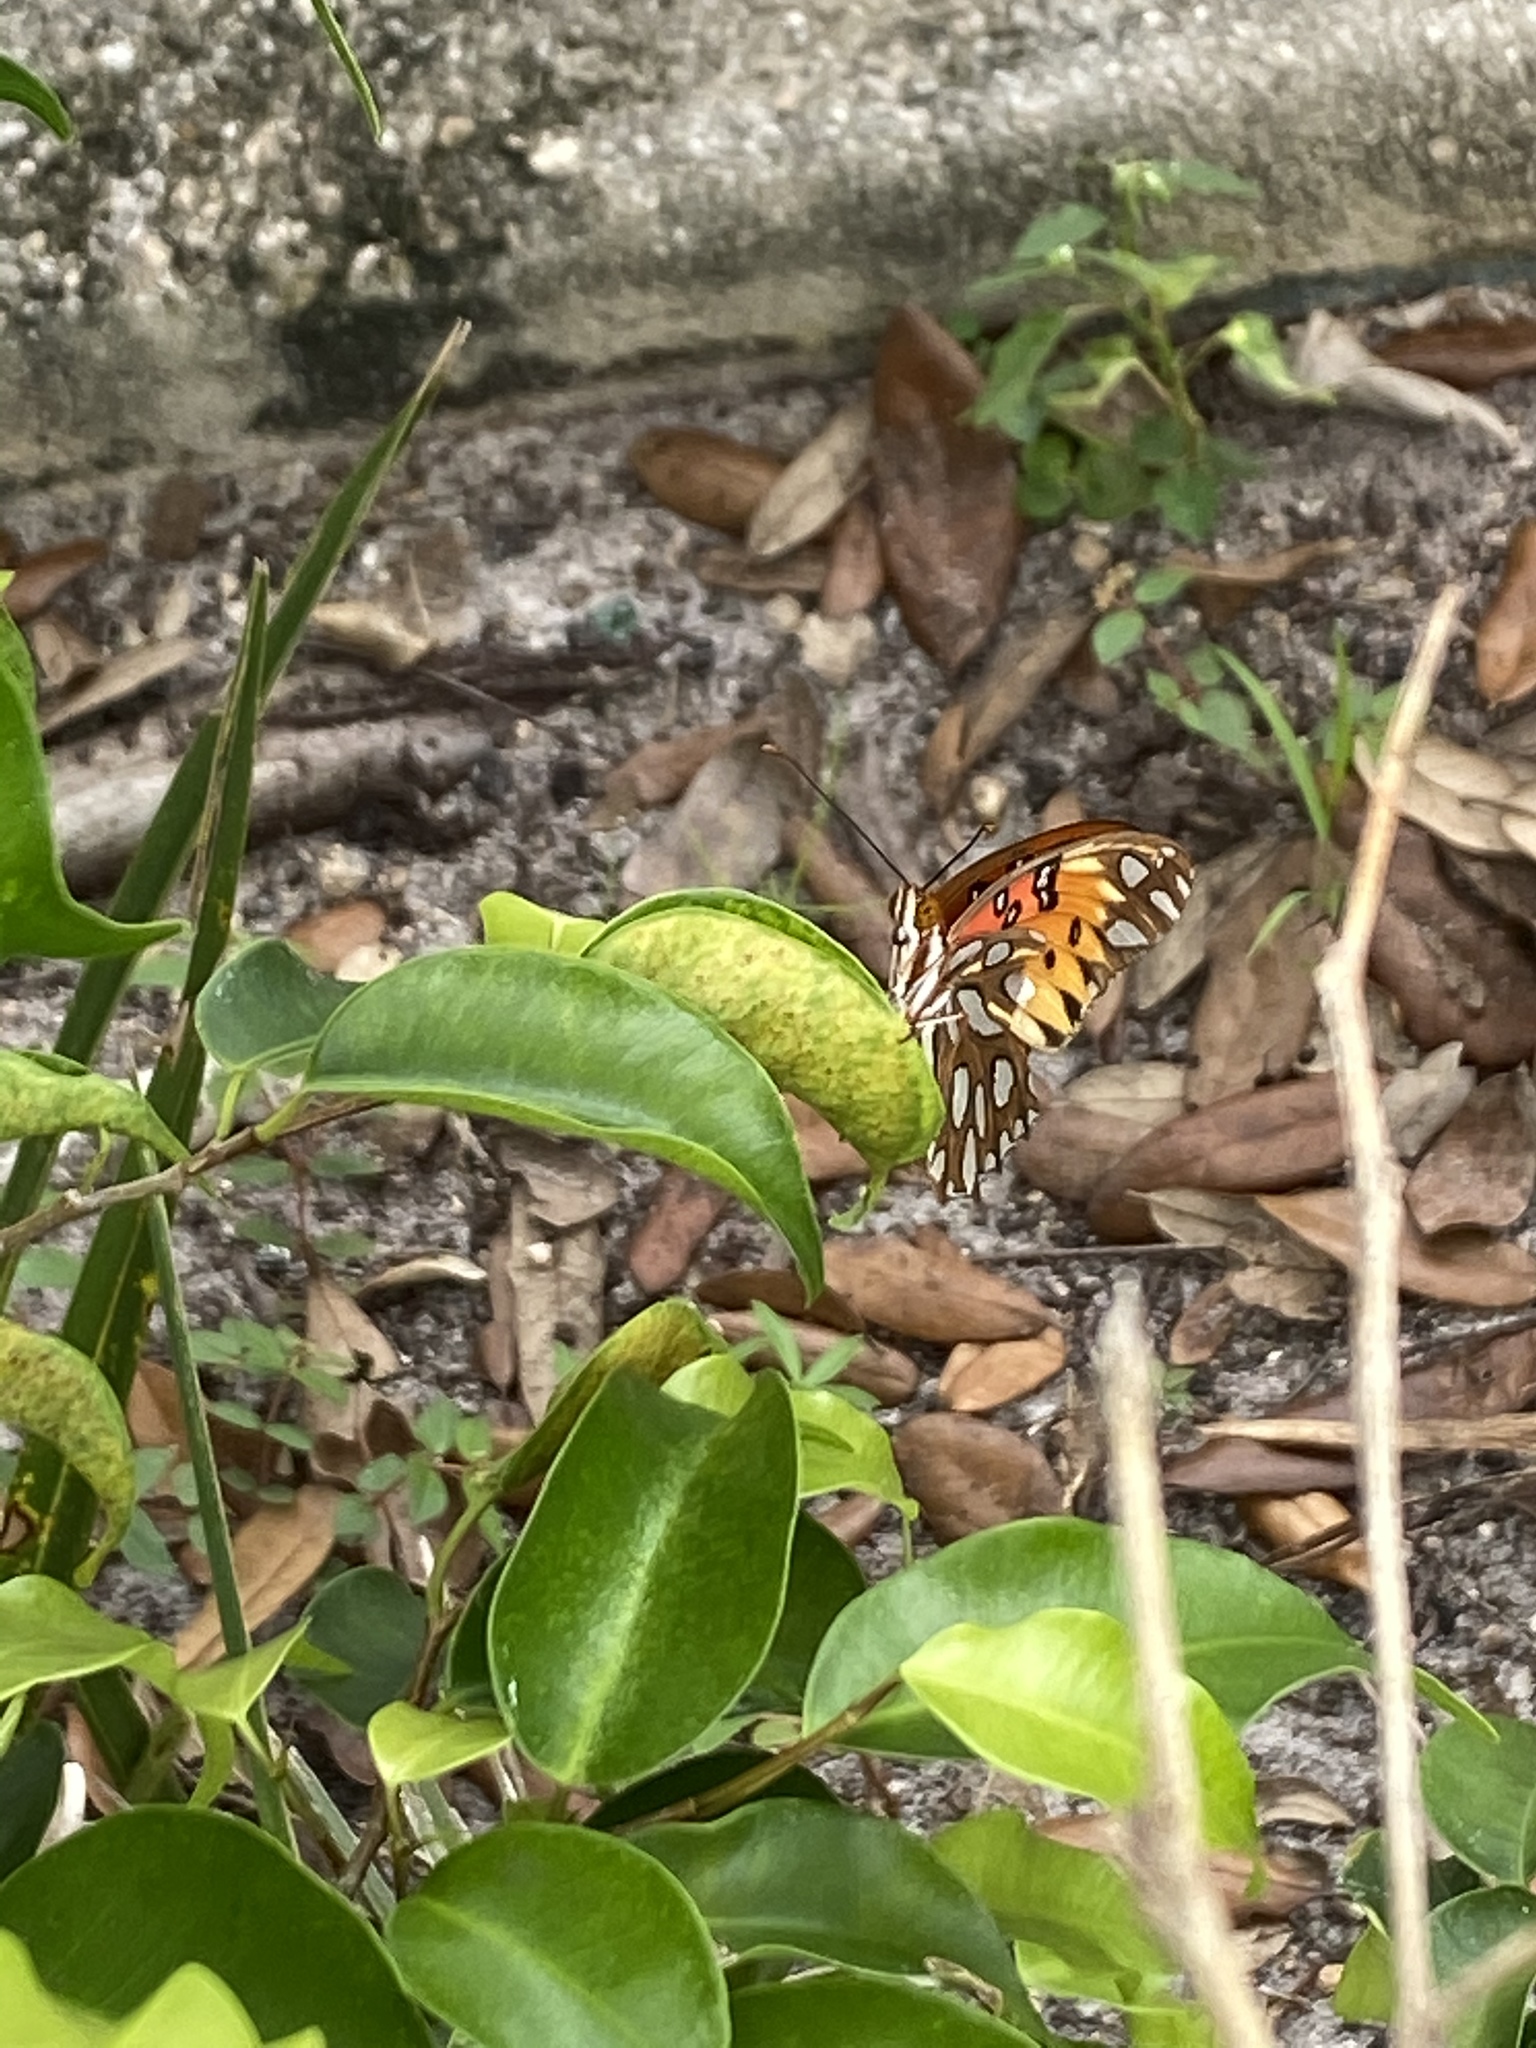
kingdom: Animalia
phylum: Arthropoda
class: Insecta
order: Lepidoptera
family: Nymphalidae
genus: Dione
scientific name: Dione vanillae
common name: Gulf fritillary
